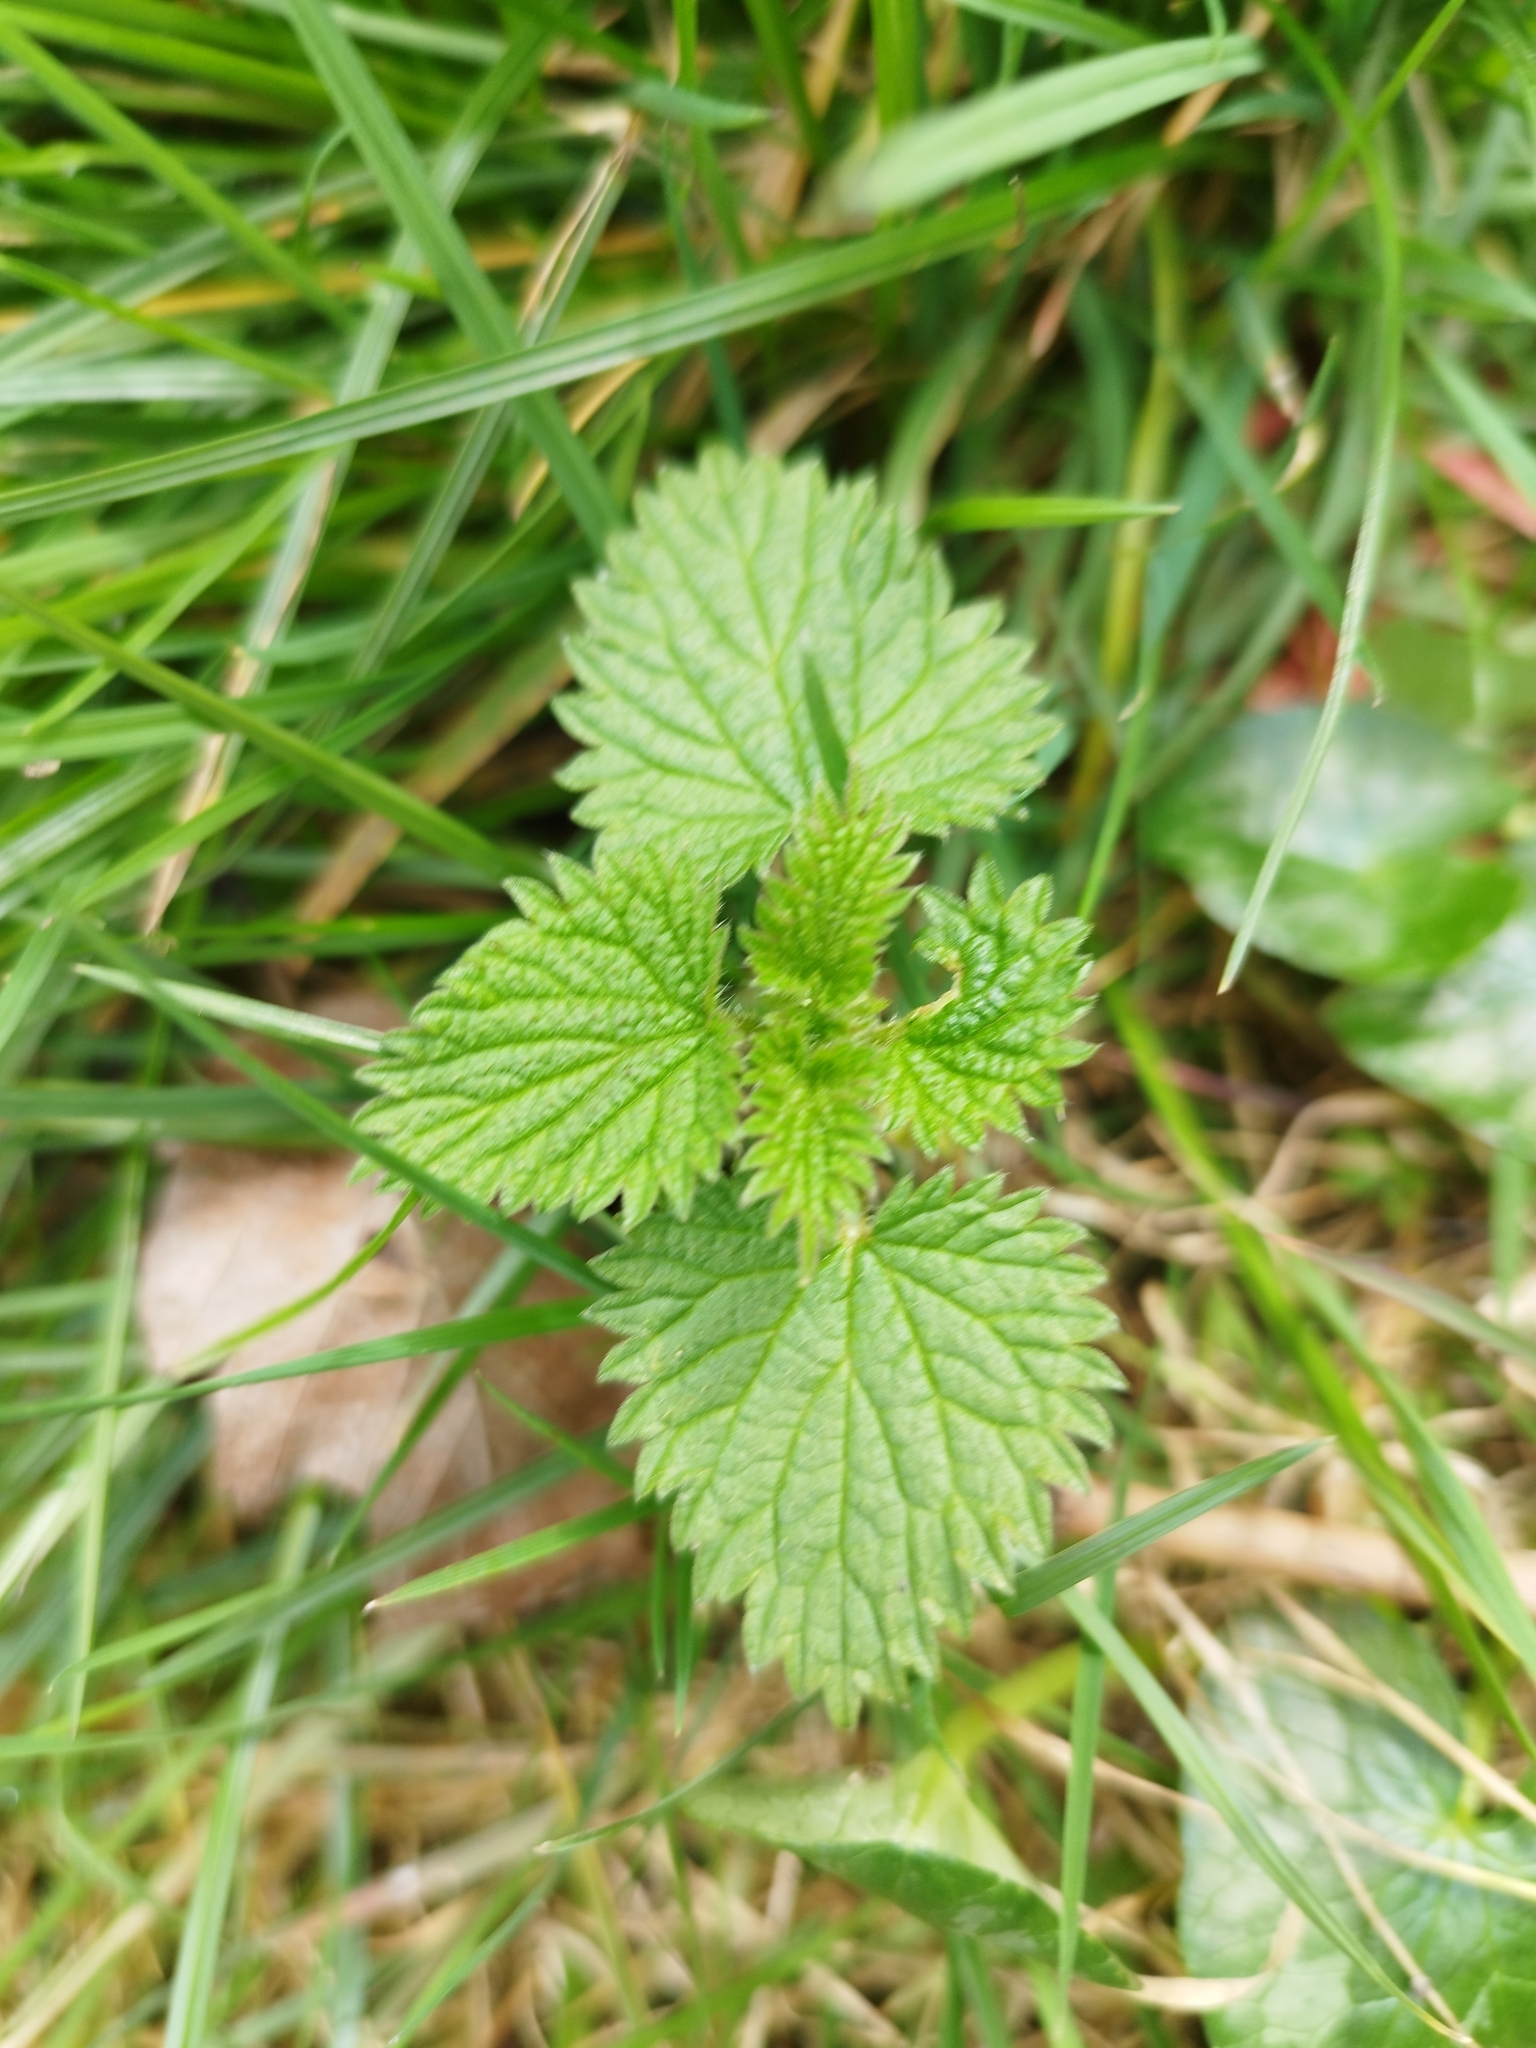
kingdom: Plantae
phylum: Tracheophyta
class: Magnoliopsida
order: Rosales
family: Urticaceae
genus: Urtica
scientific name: Urtica dioica
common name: Common nettle
